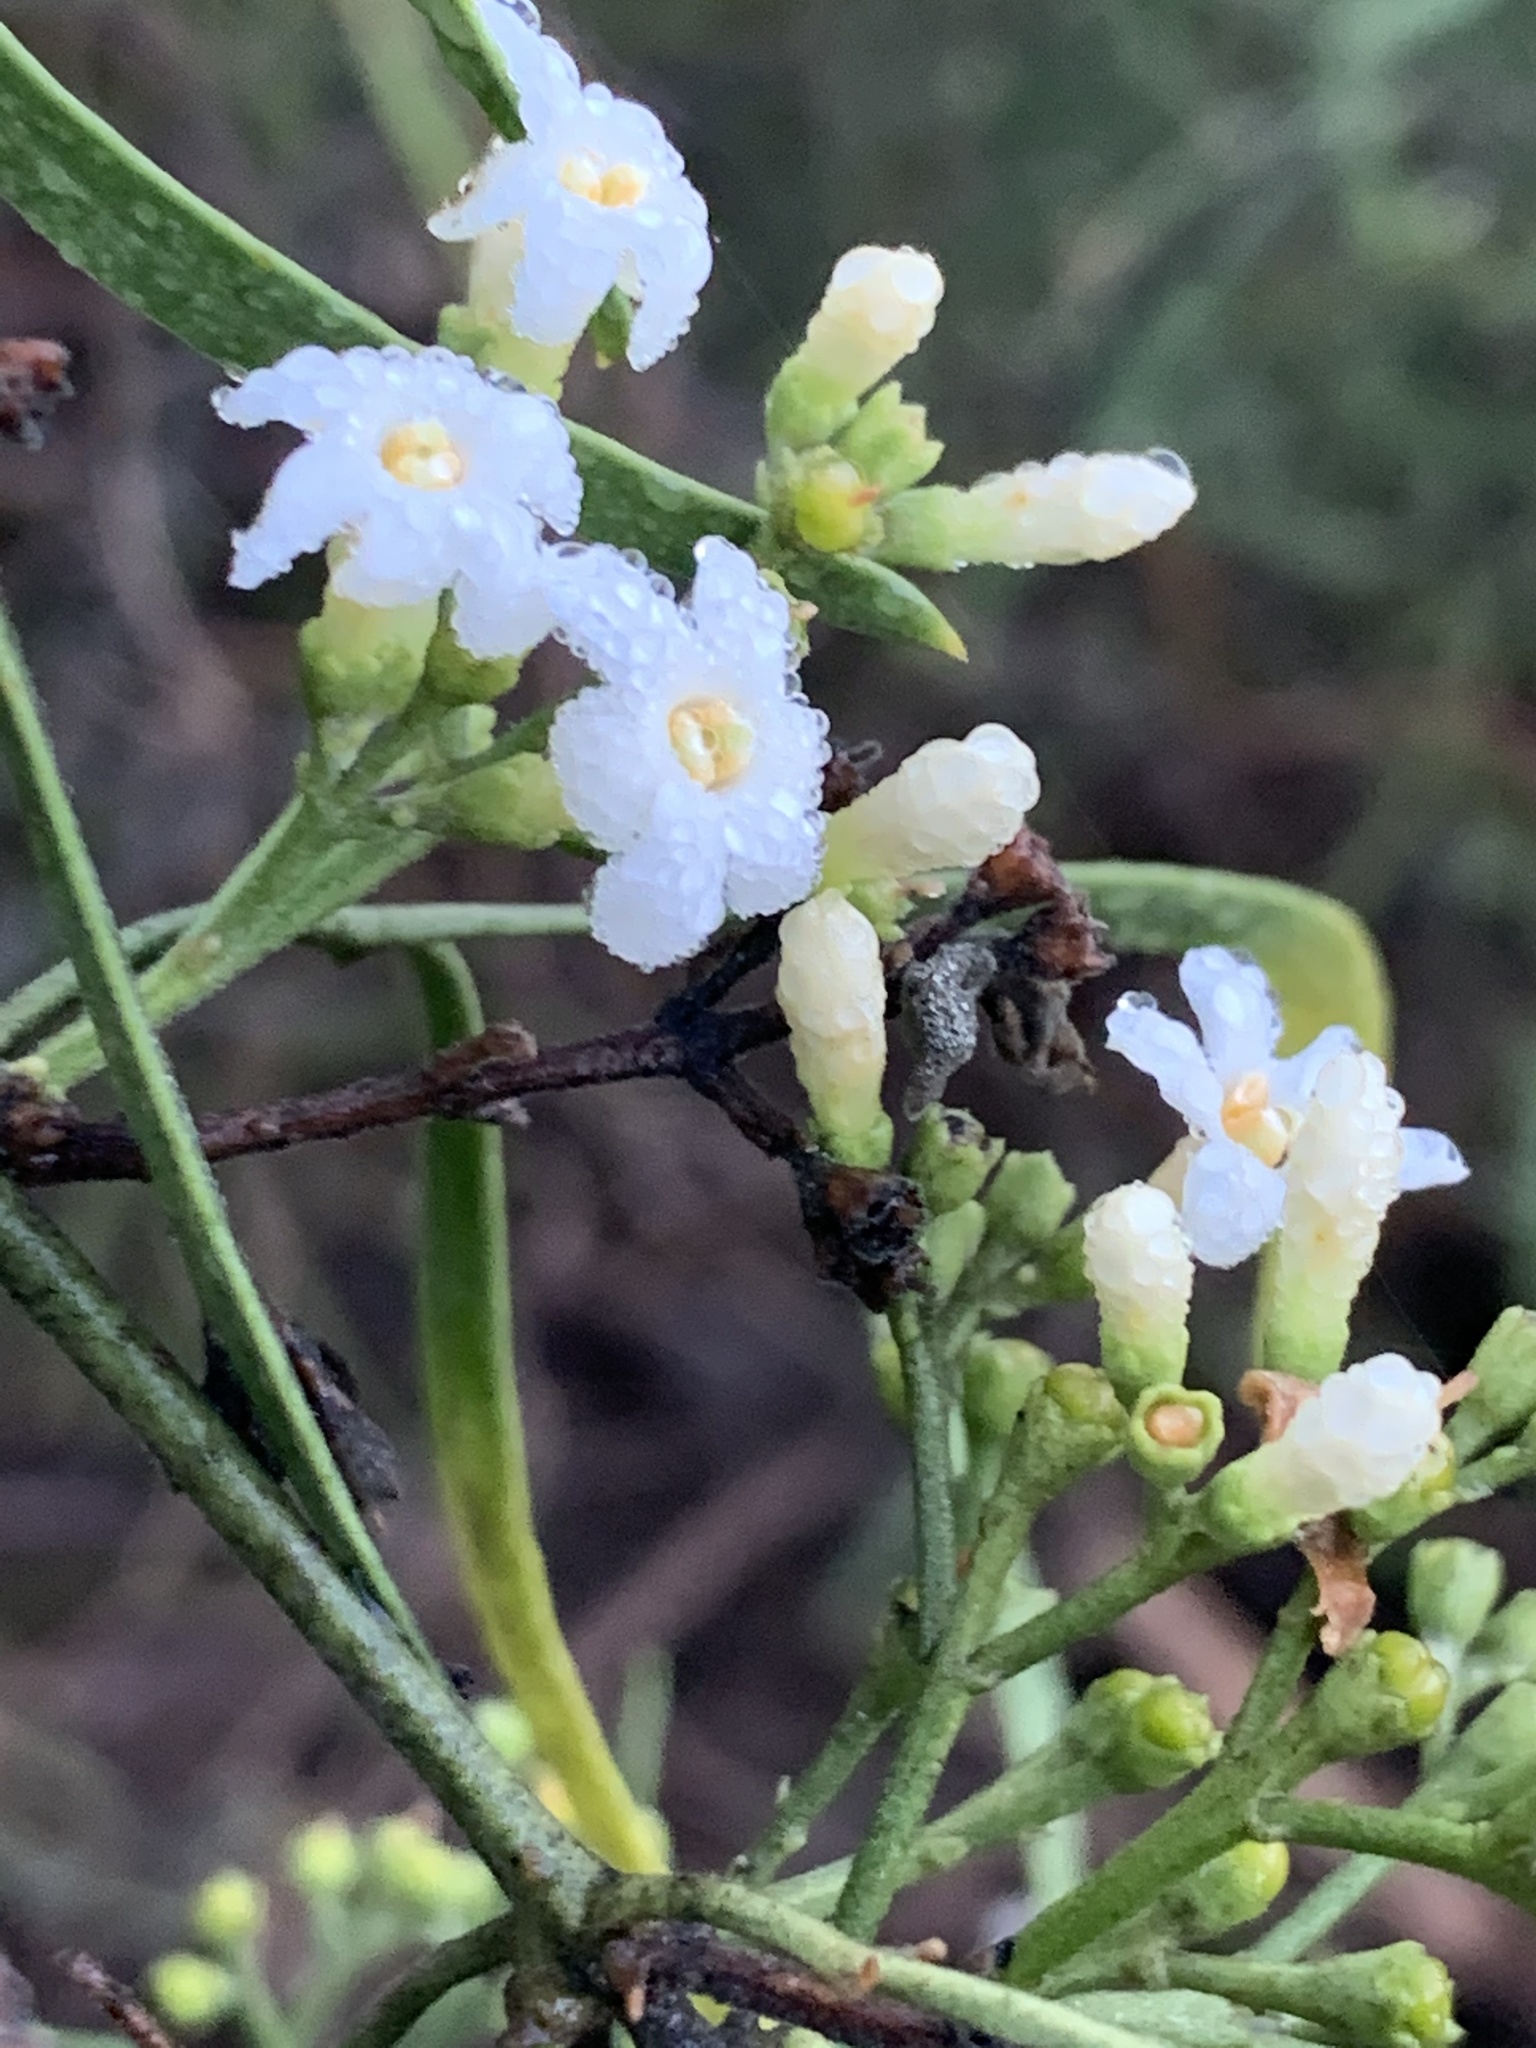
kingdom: Plantae
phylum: Tracheophyta
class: Magnoliopsida
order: Lamiales
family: Oleaceae
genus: Jasminum
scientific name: Jasminum didymum
